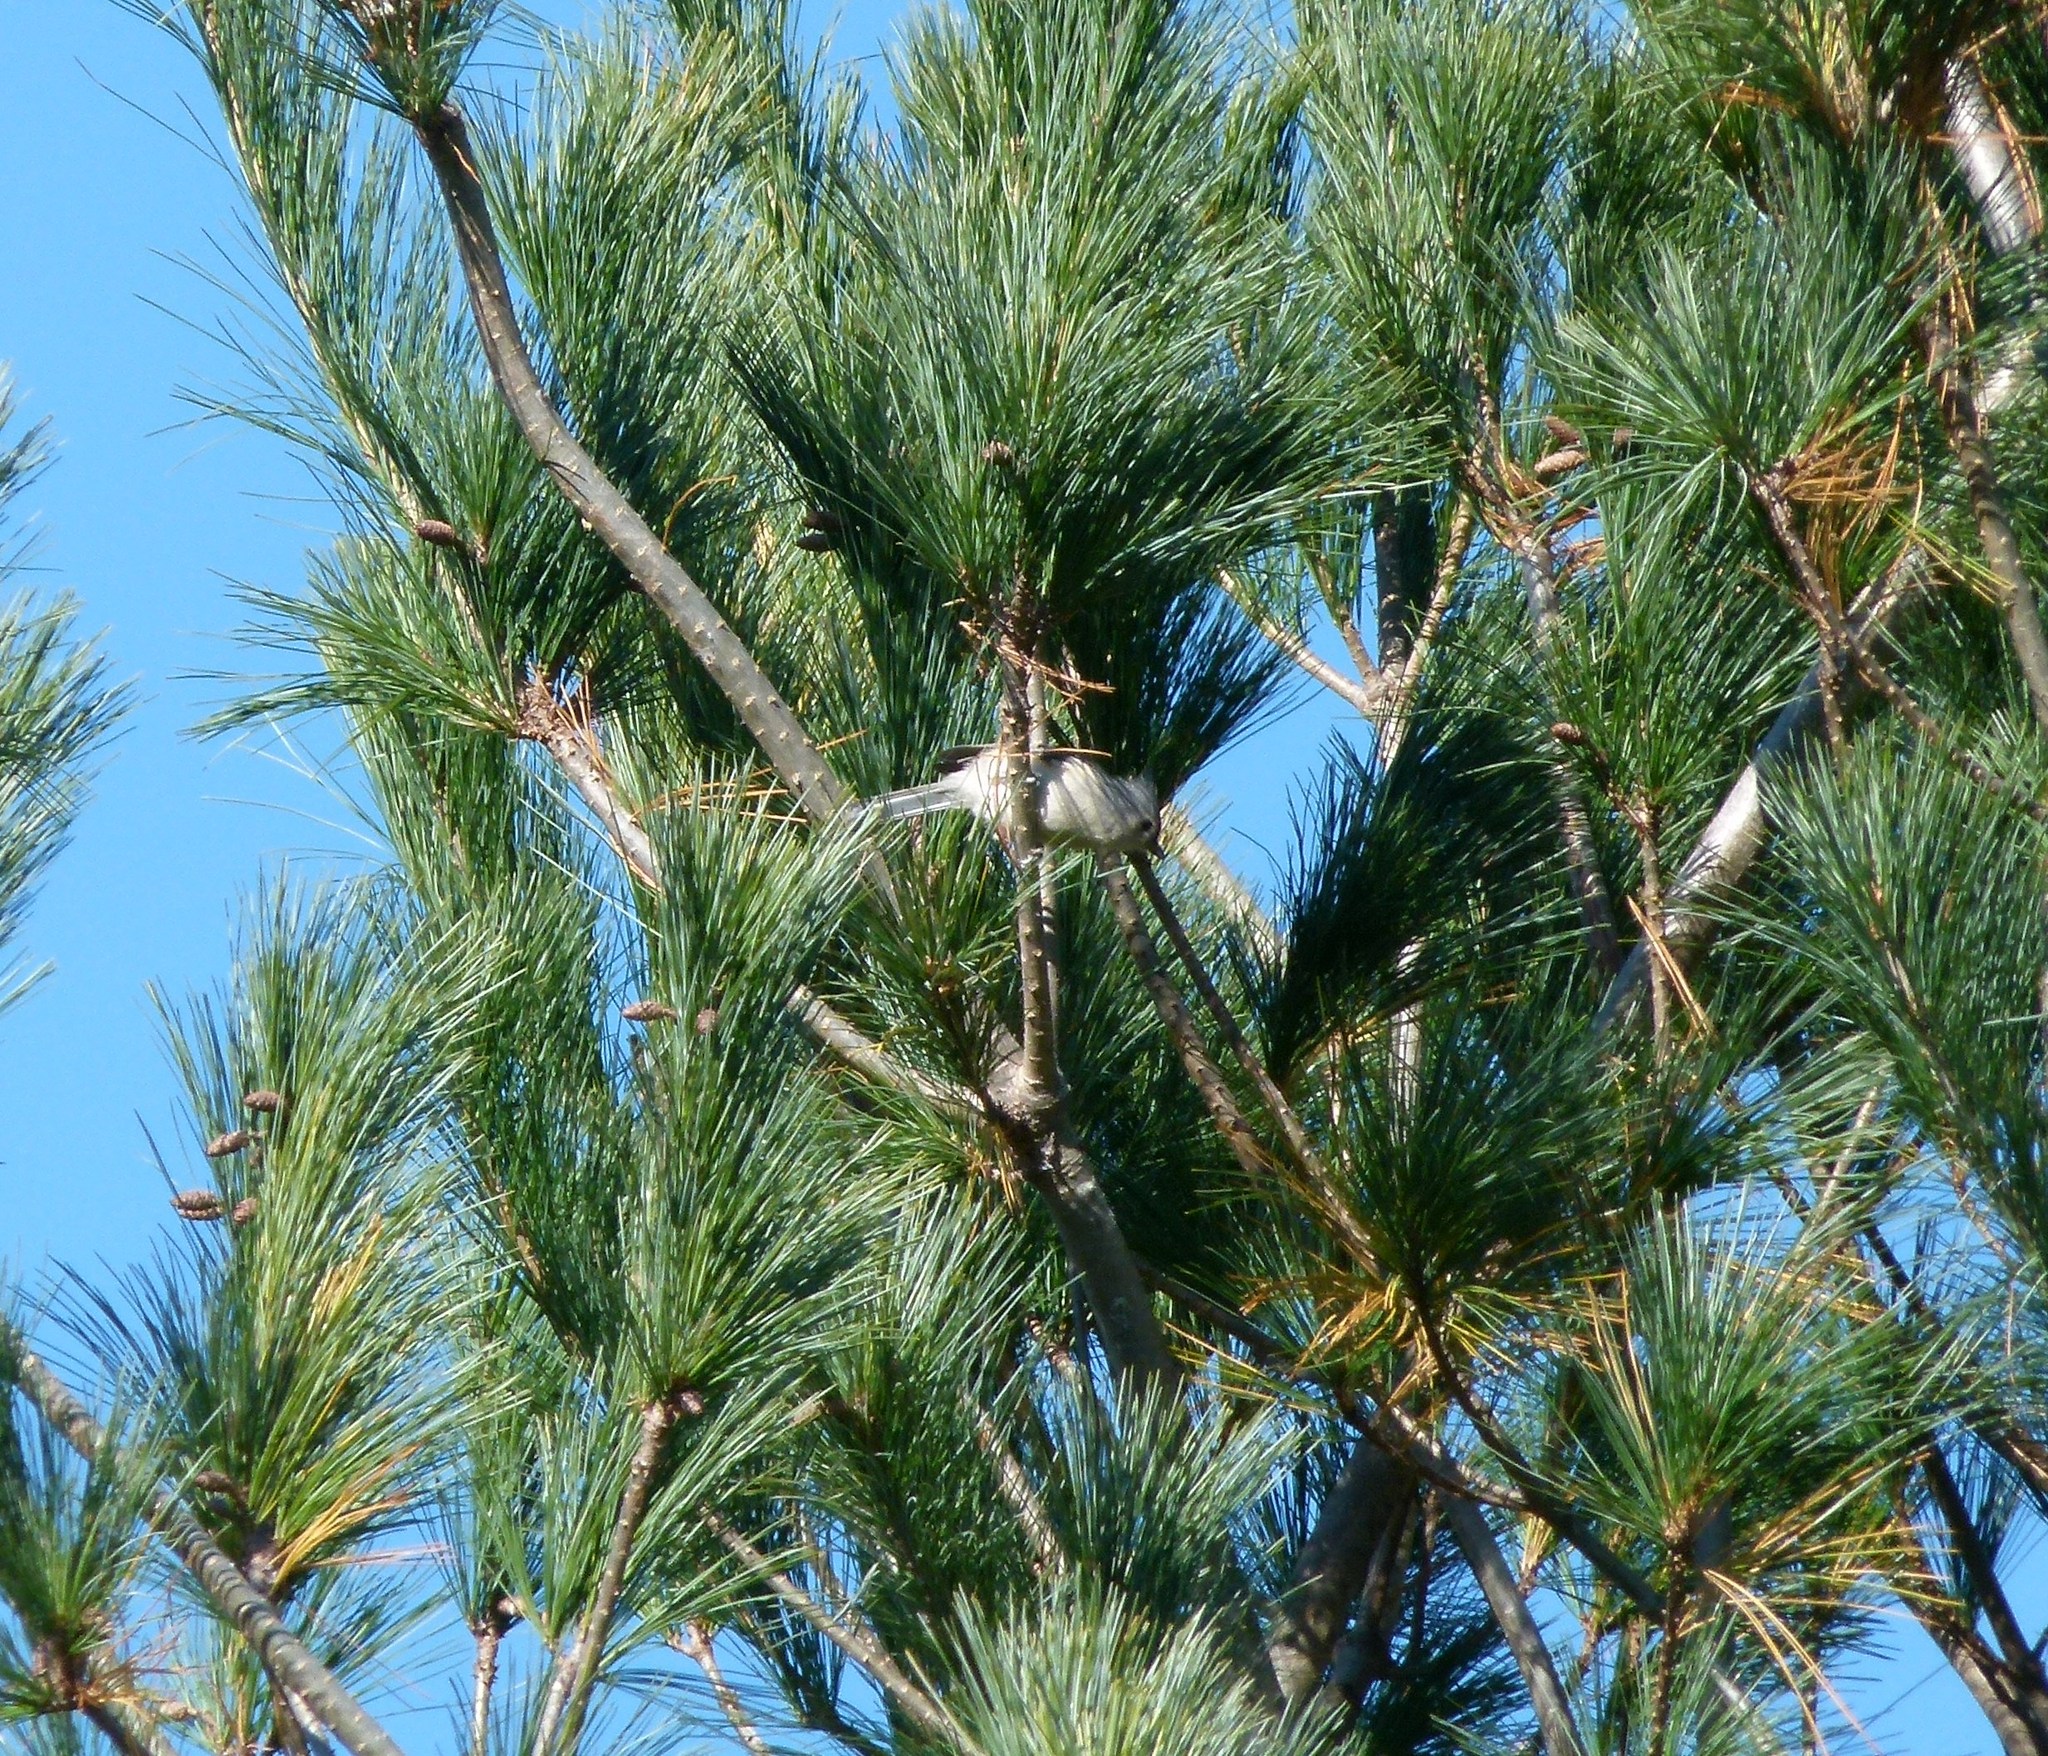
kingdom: Animalia
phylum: Chordata
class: Aves
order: Passeriformes
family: Paridae
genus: Baeolophus
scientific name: Baeolophus bicolor
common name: Tufted titmouse
